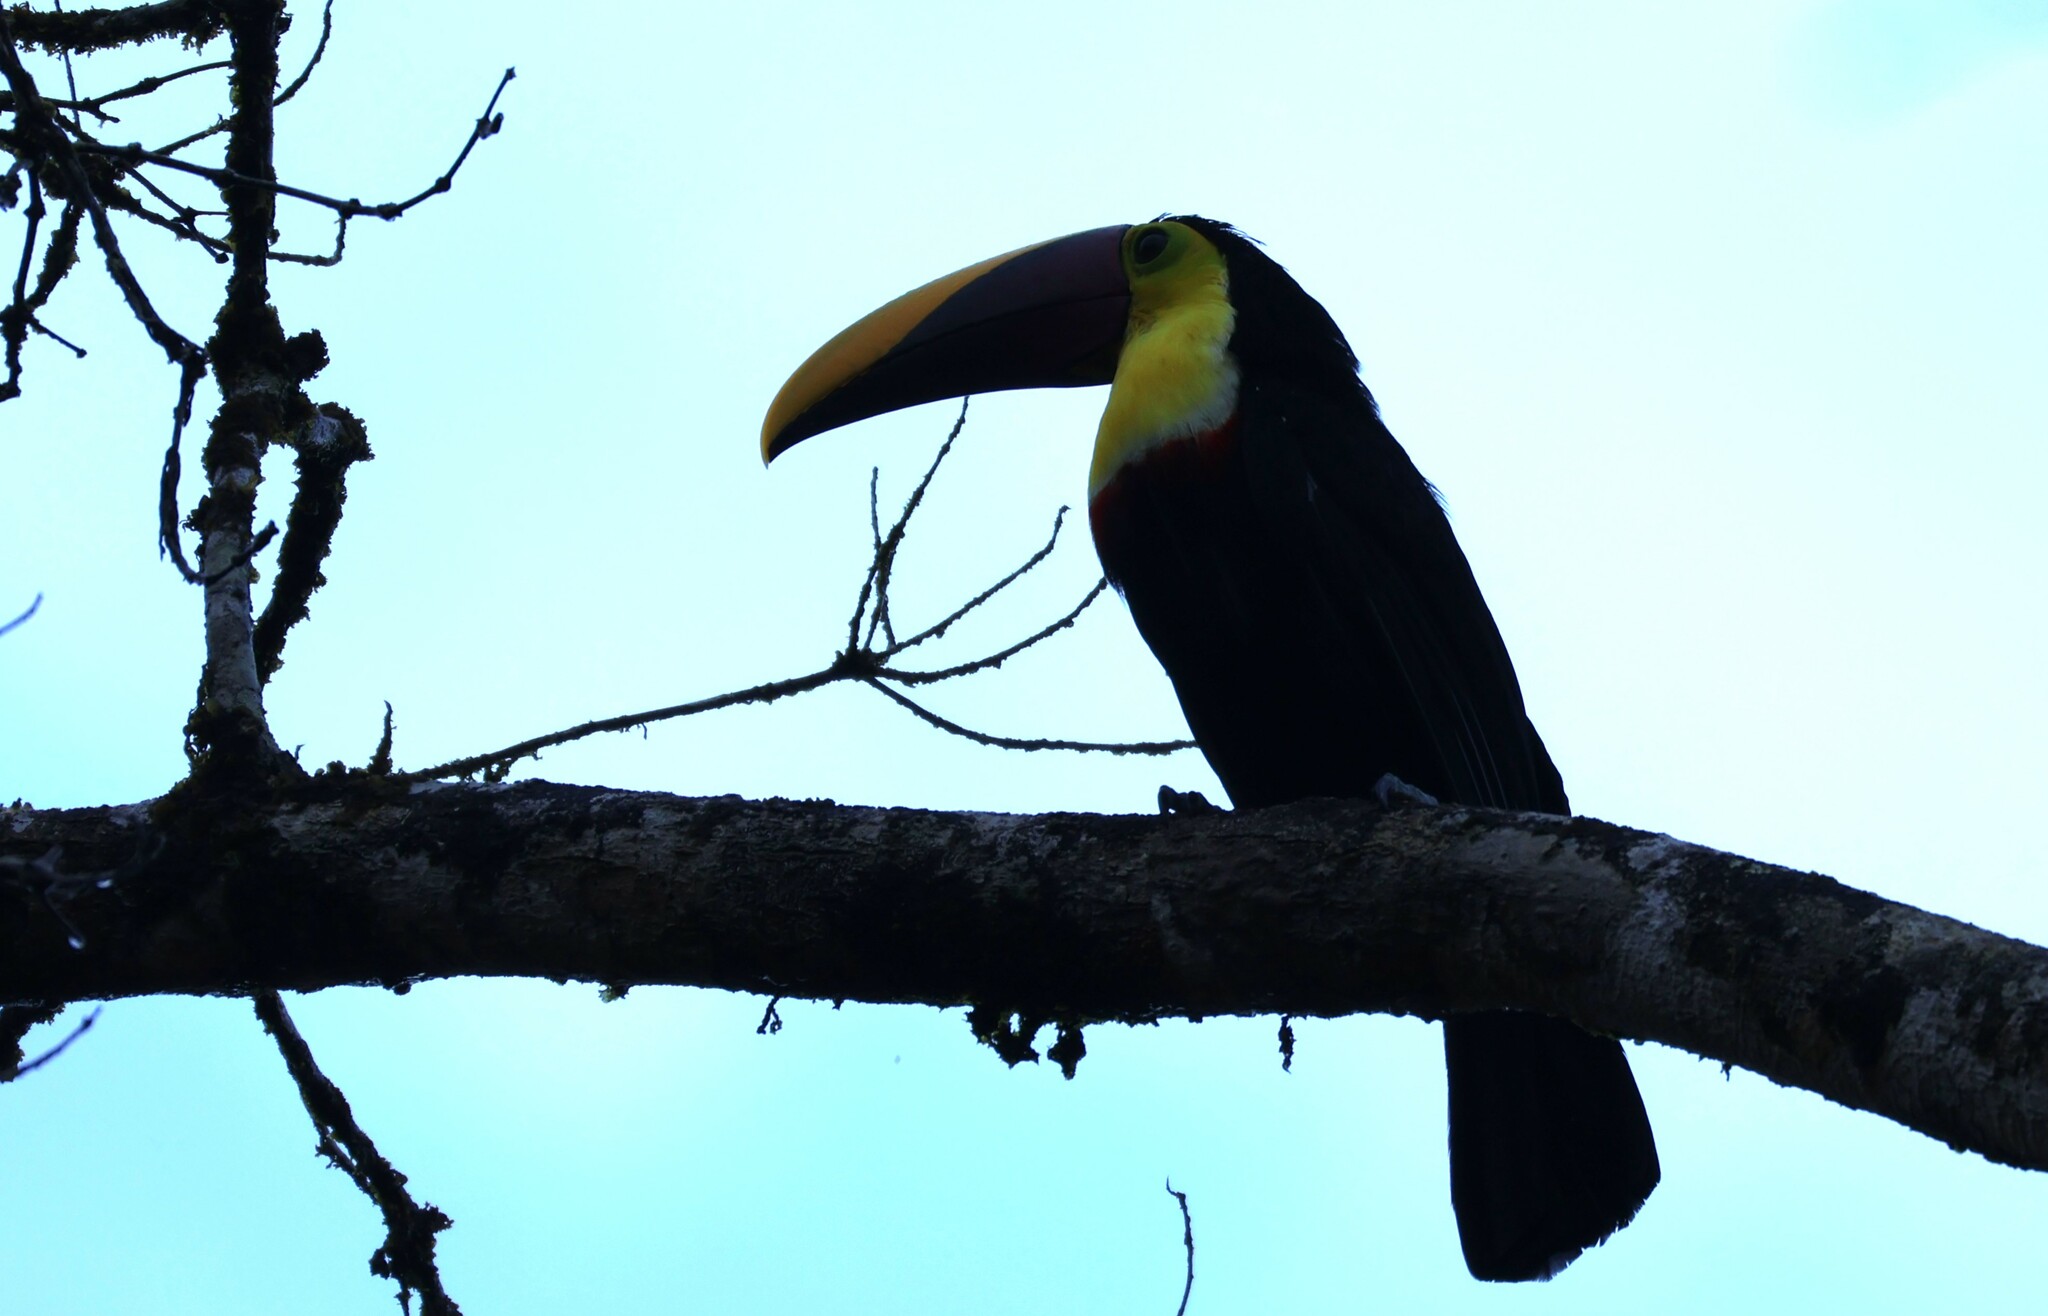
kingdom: Animalia
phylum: Chordata
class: Aves
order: Piciformes
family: Ramphastidae
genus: Ramphastos
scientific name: Ramphastos ambiguus
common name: Yellow-throated toucan
